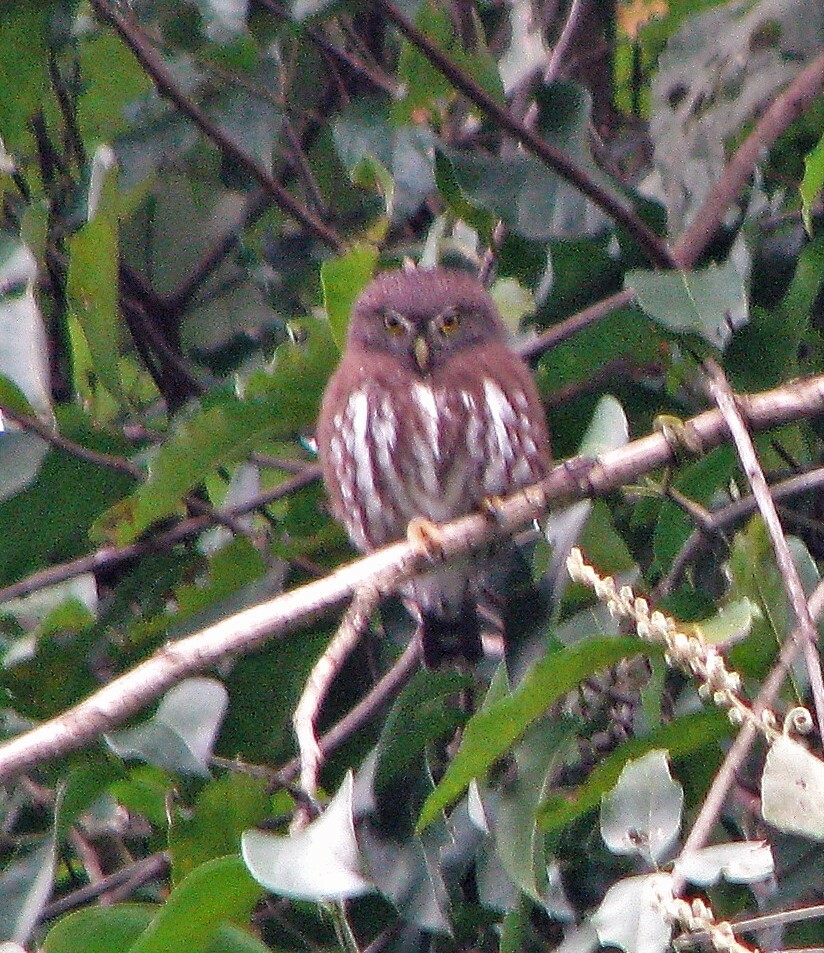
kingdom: Animalia
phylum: Chordata
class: Aves
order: Strigiformes
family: Strigidae
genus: Glaucidium
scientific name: Glaucidium brasilianum
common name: Ferruginous pygmy-owl
